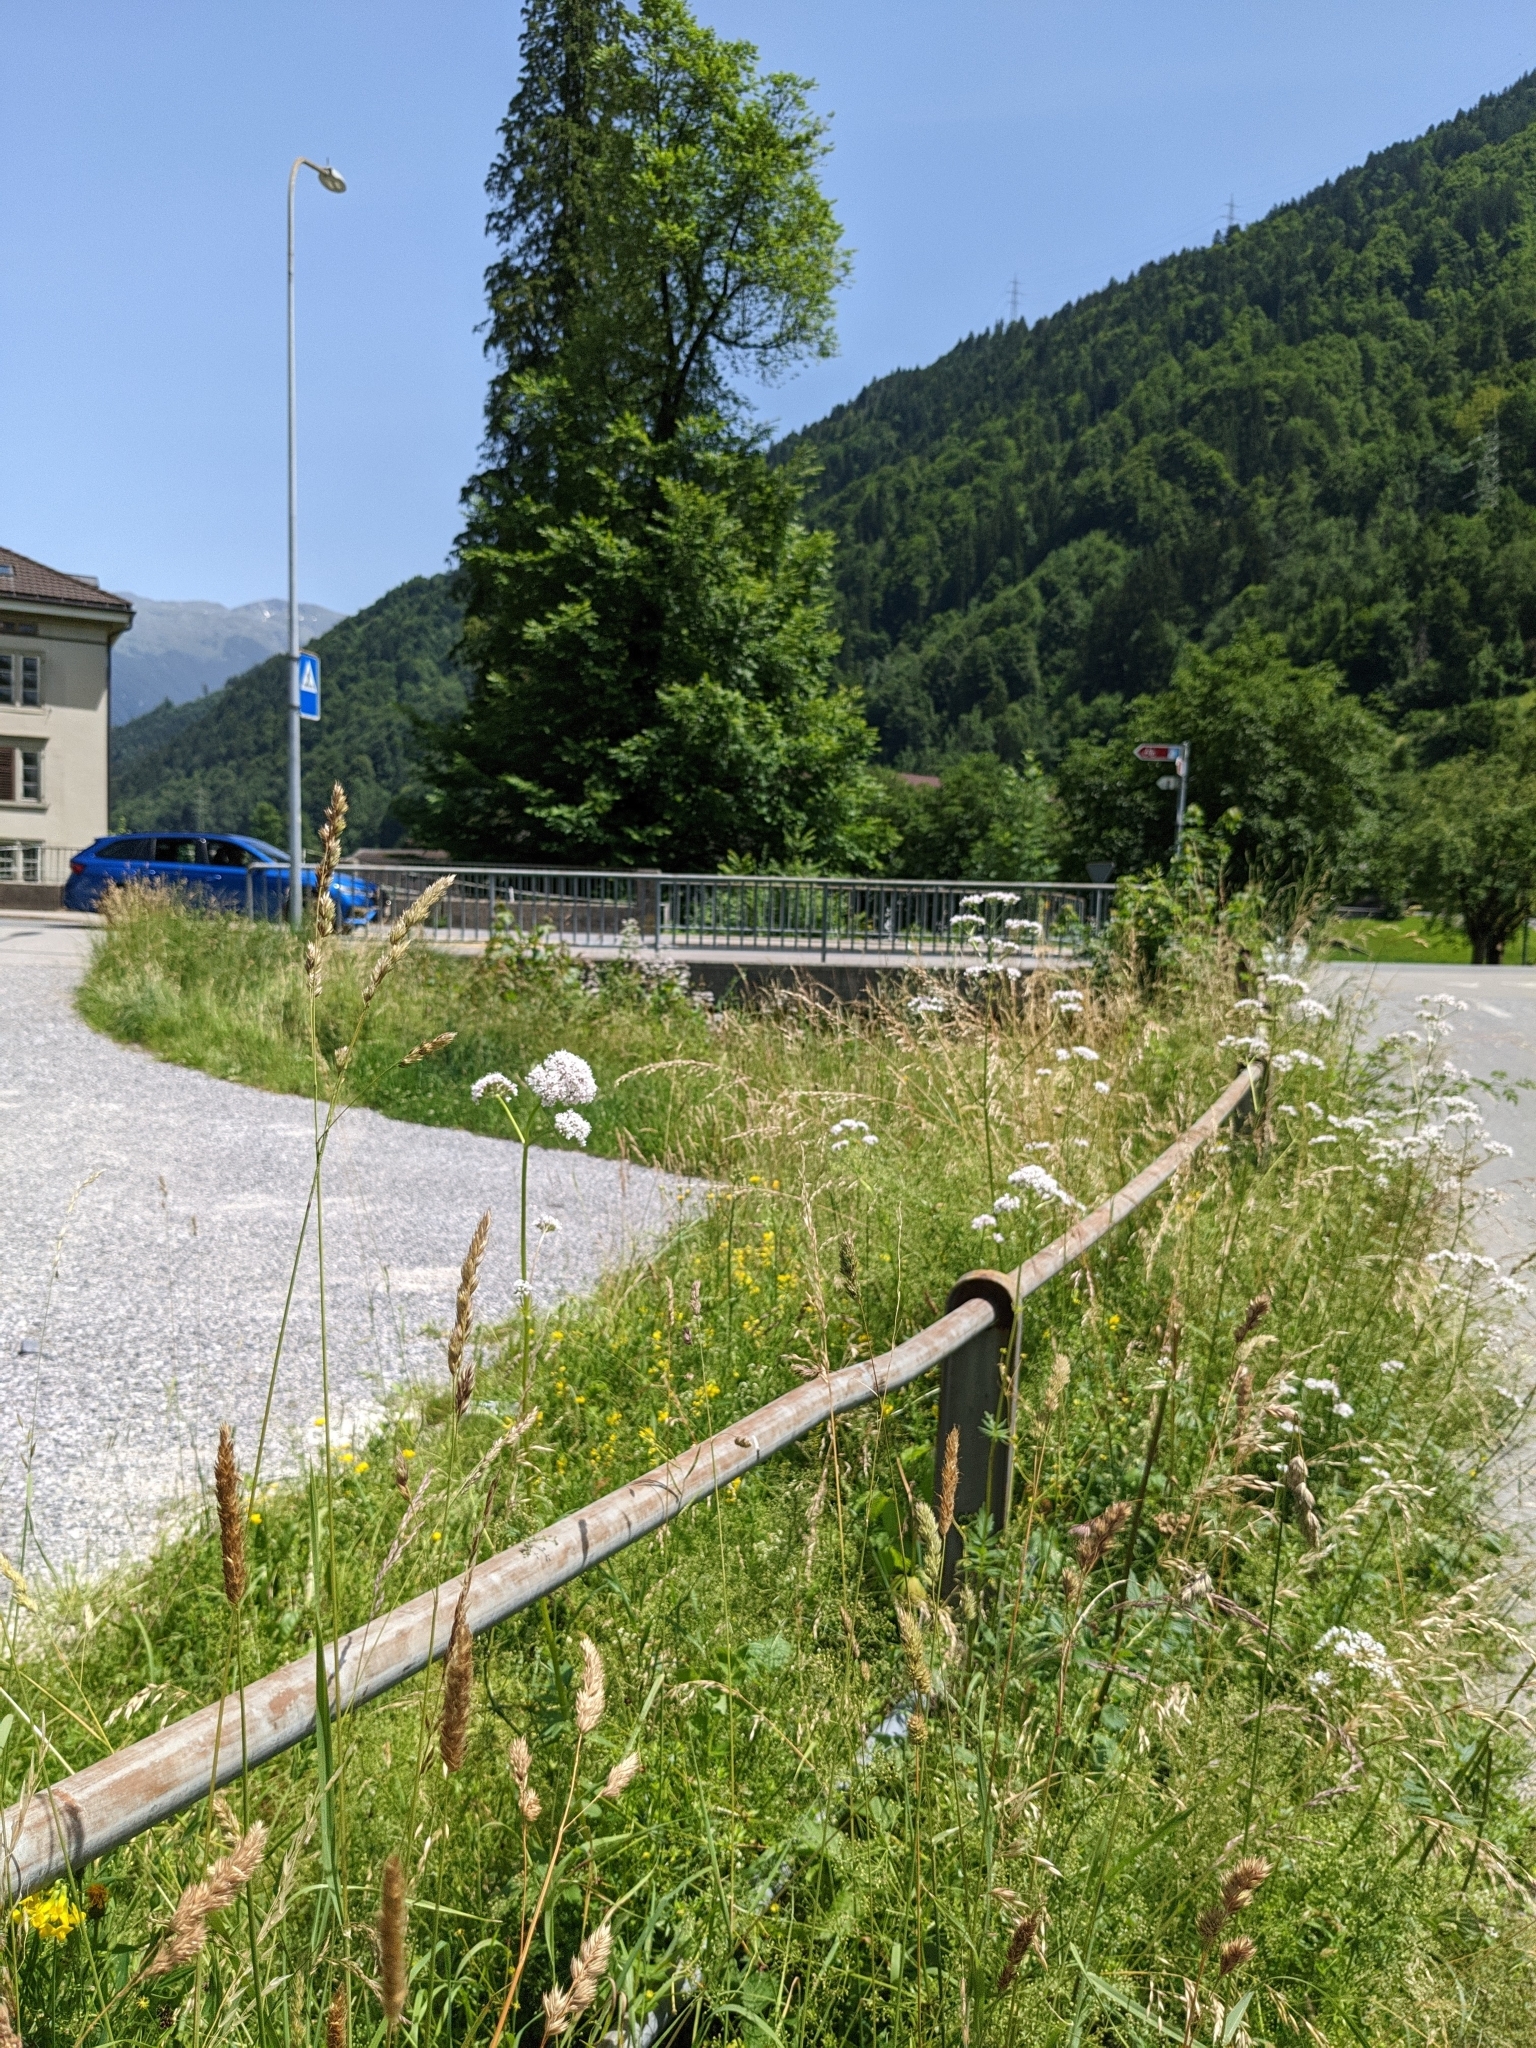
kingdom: Plantae
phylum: Tracheophyta
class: Magnoliopsida
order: Dipsacales
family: Caprifoliaceae
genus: Valeriana
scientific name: Valeriana officinalis
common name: Common valerian
